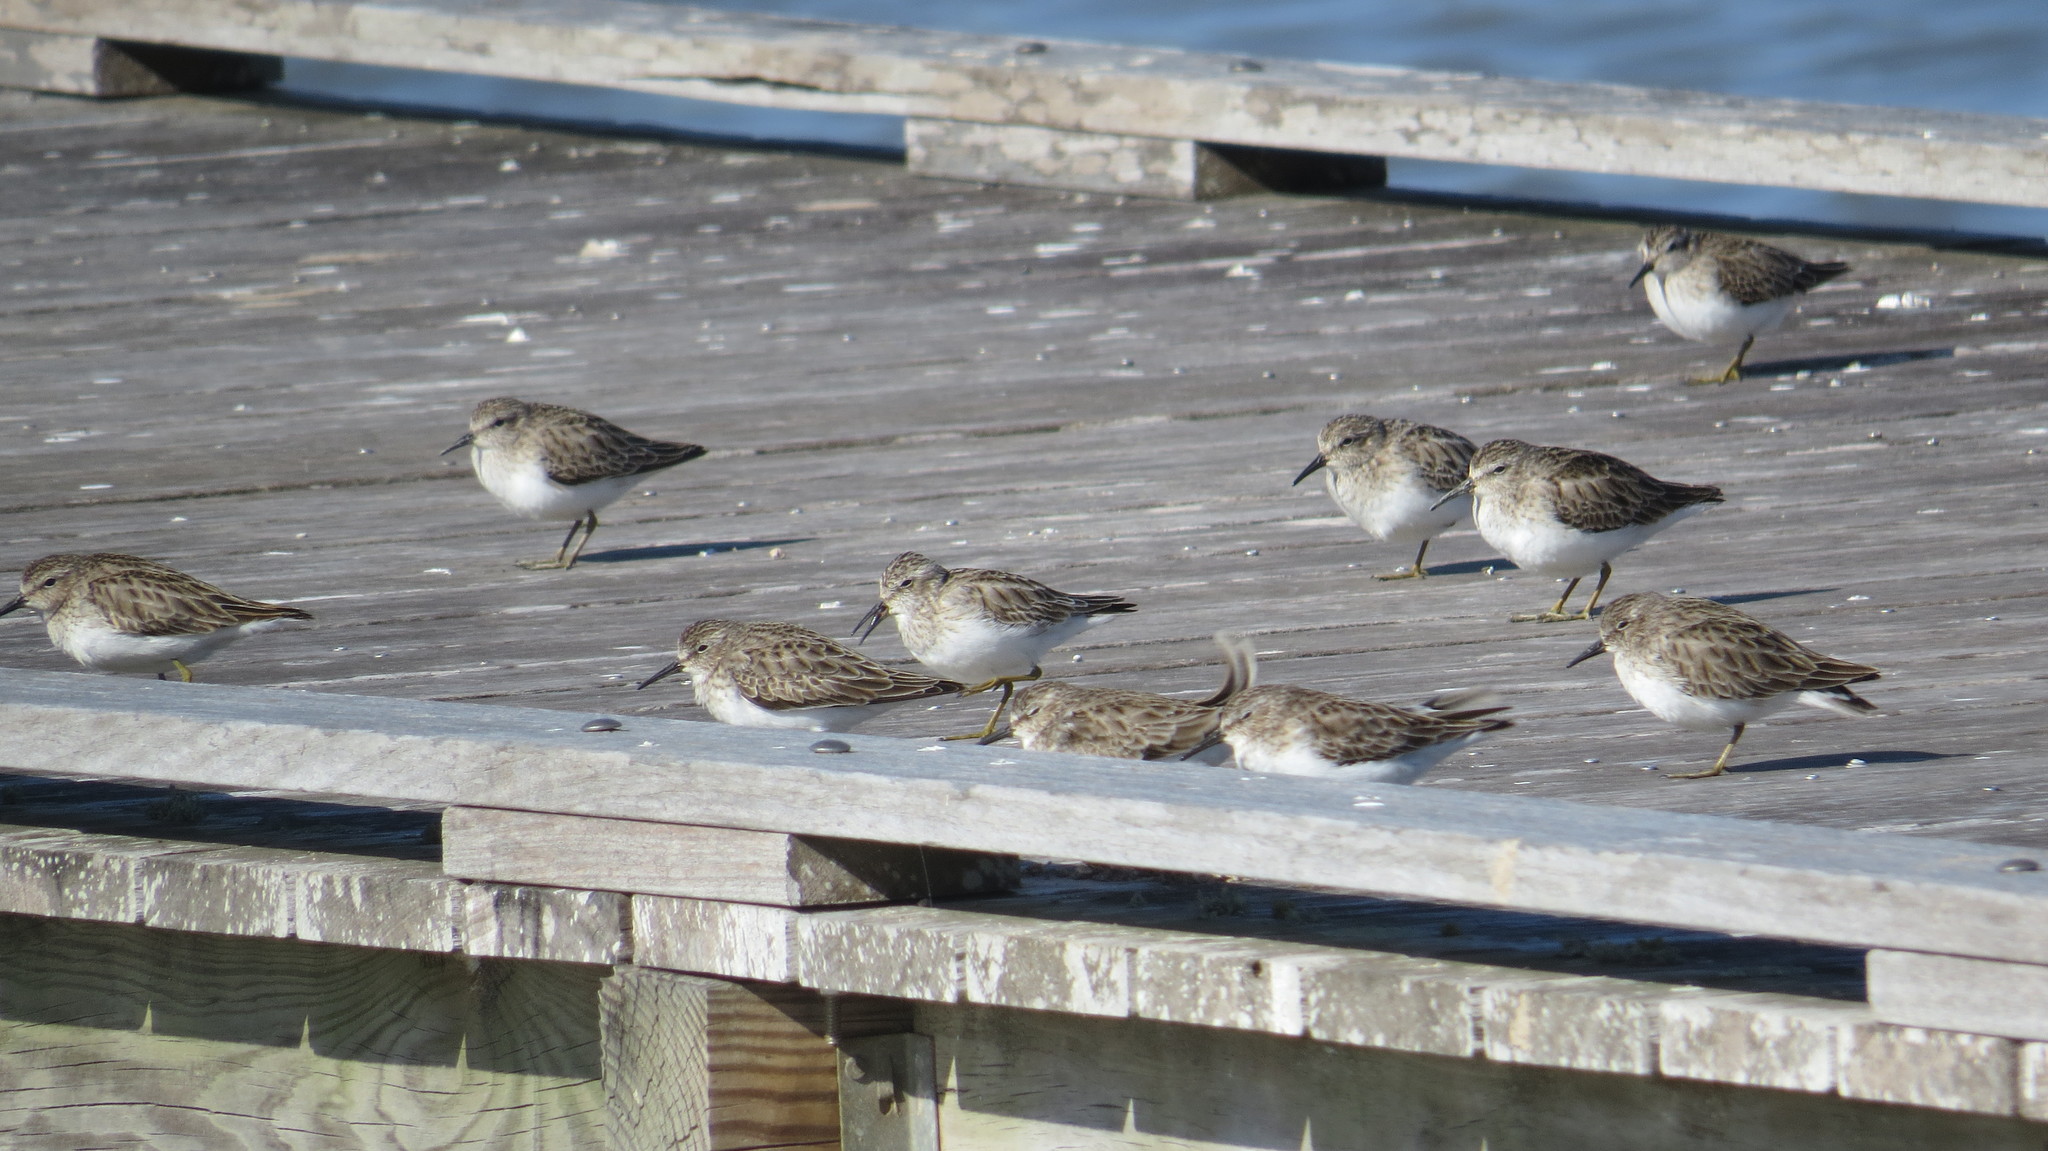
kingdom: Animalia
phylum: Chordata
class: Aves
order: Charadriiformes
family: Scolopacidae
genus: Calidris
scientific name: Calidris minutilla
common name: Least sandpiper
